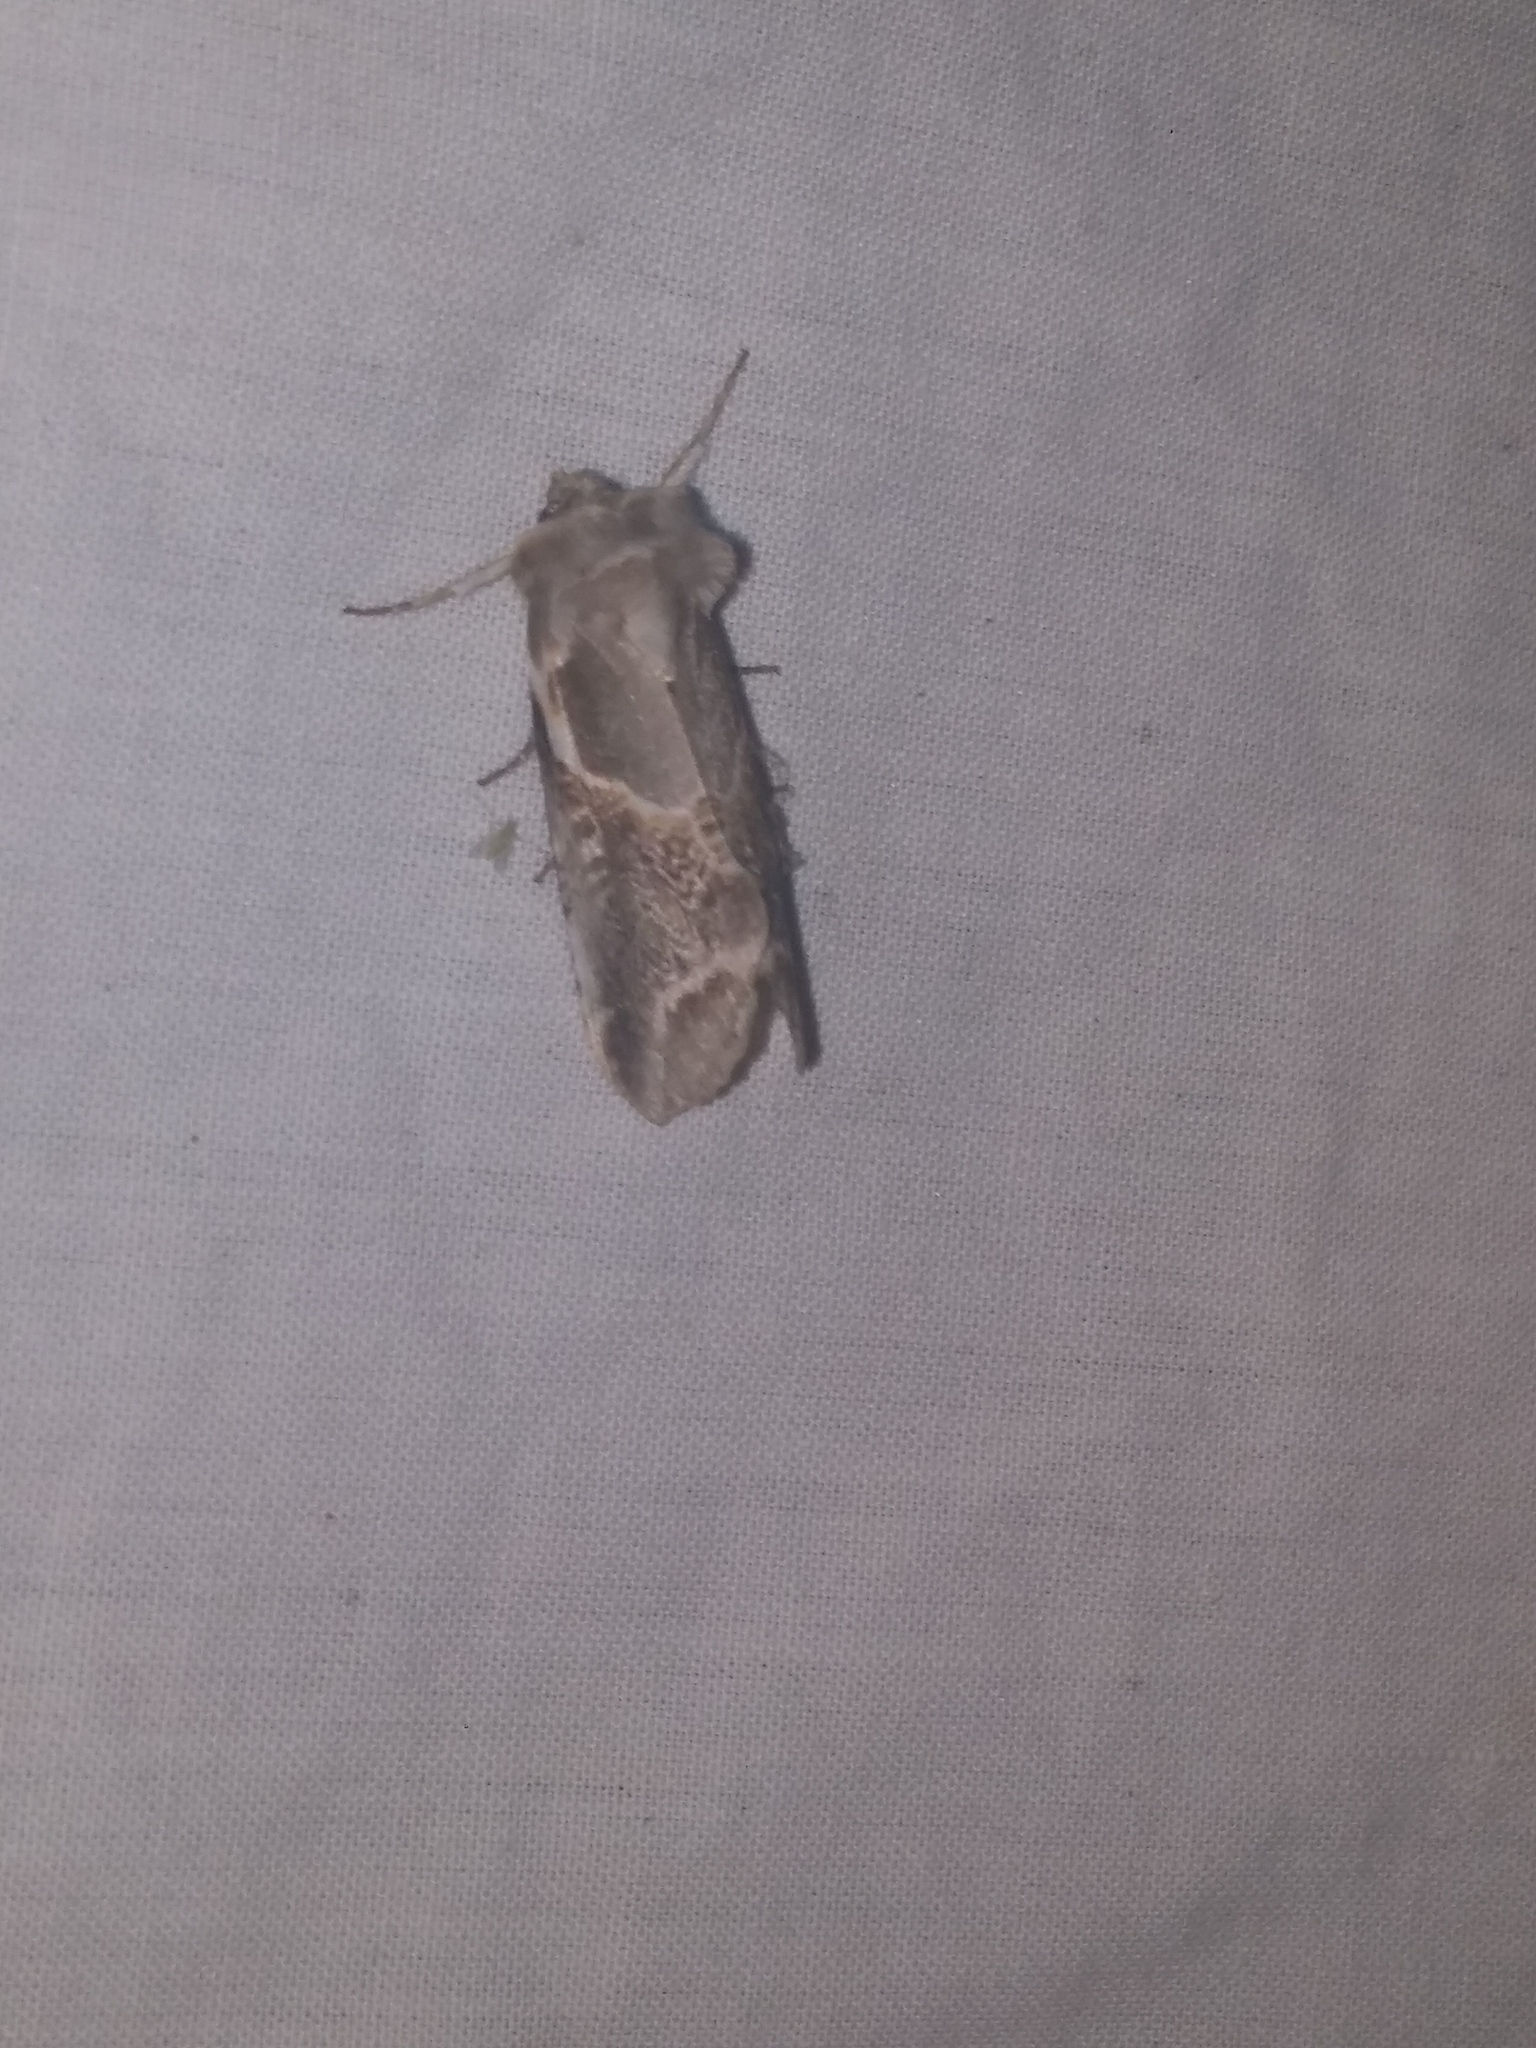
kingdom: Animalia
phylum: Arthropoda
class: Insecta
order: Lepidoptera
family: Drepanidae
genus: Habrosyne
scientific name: Habrosyne scripta
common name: Lettered habrosyne moth
